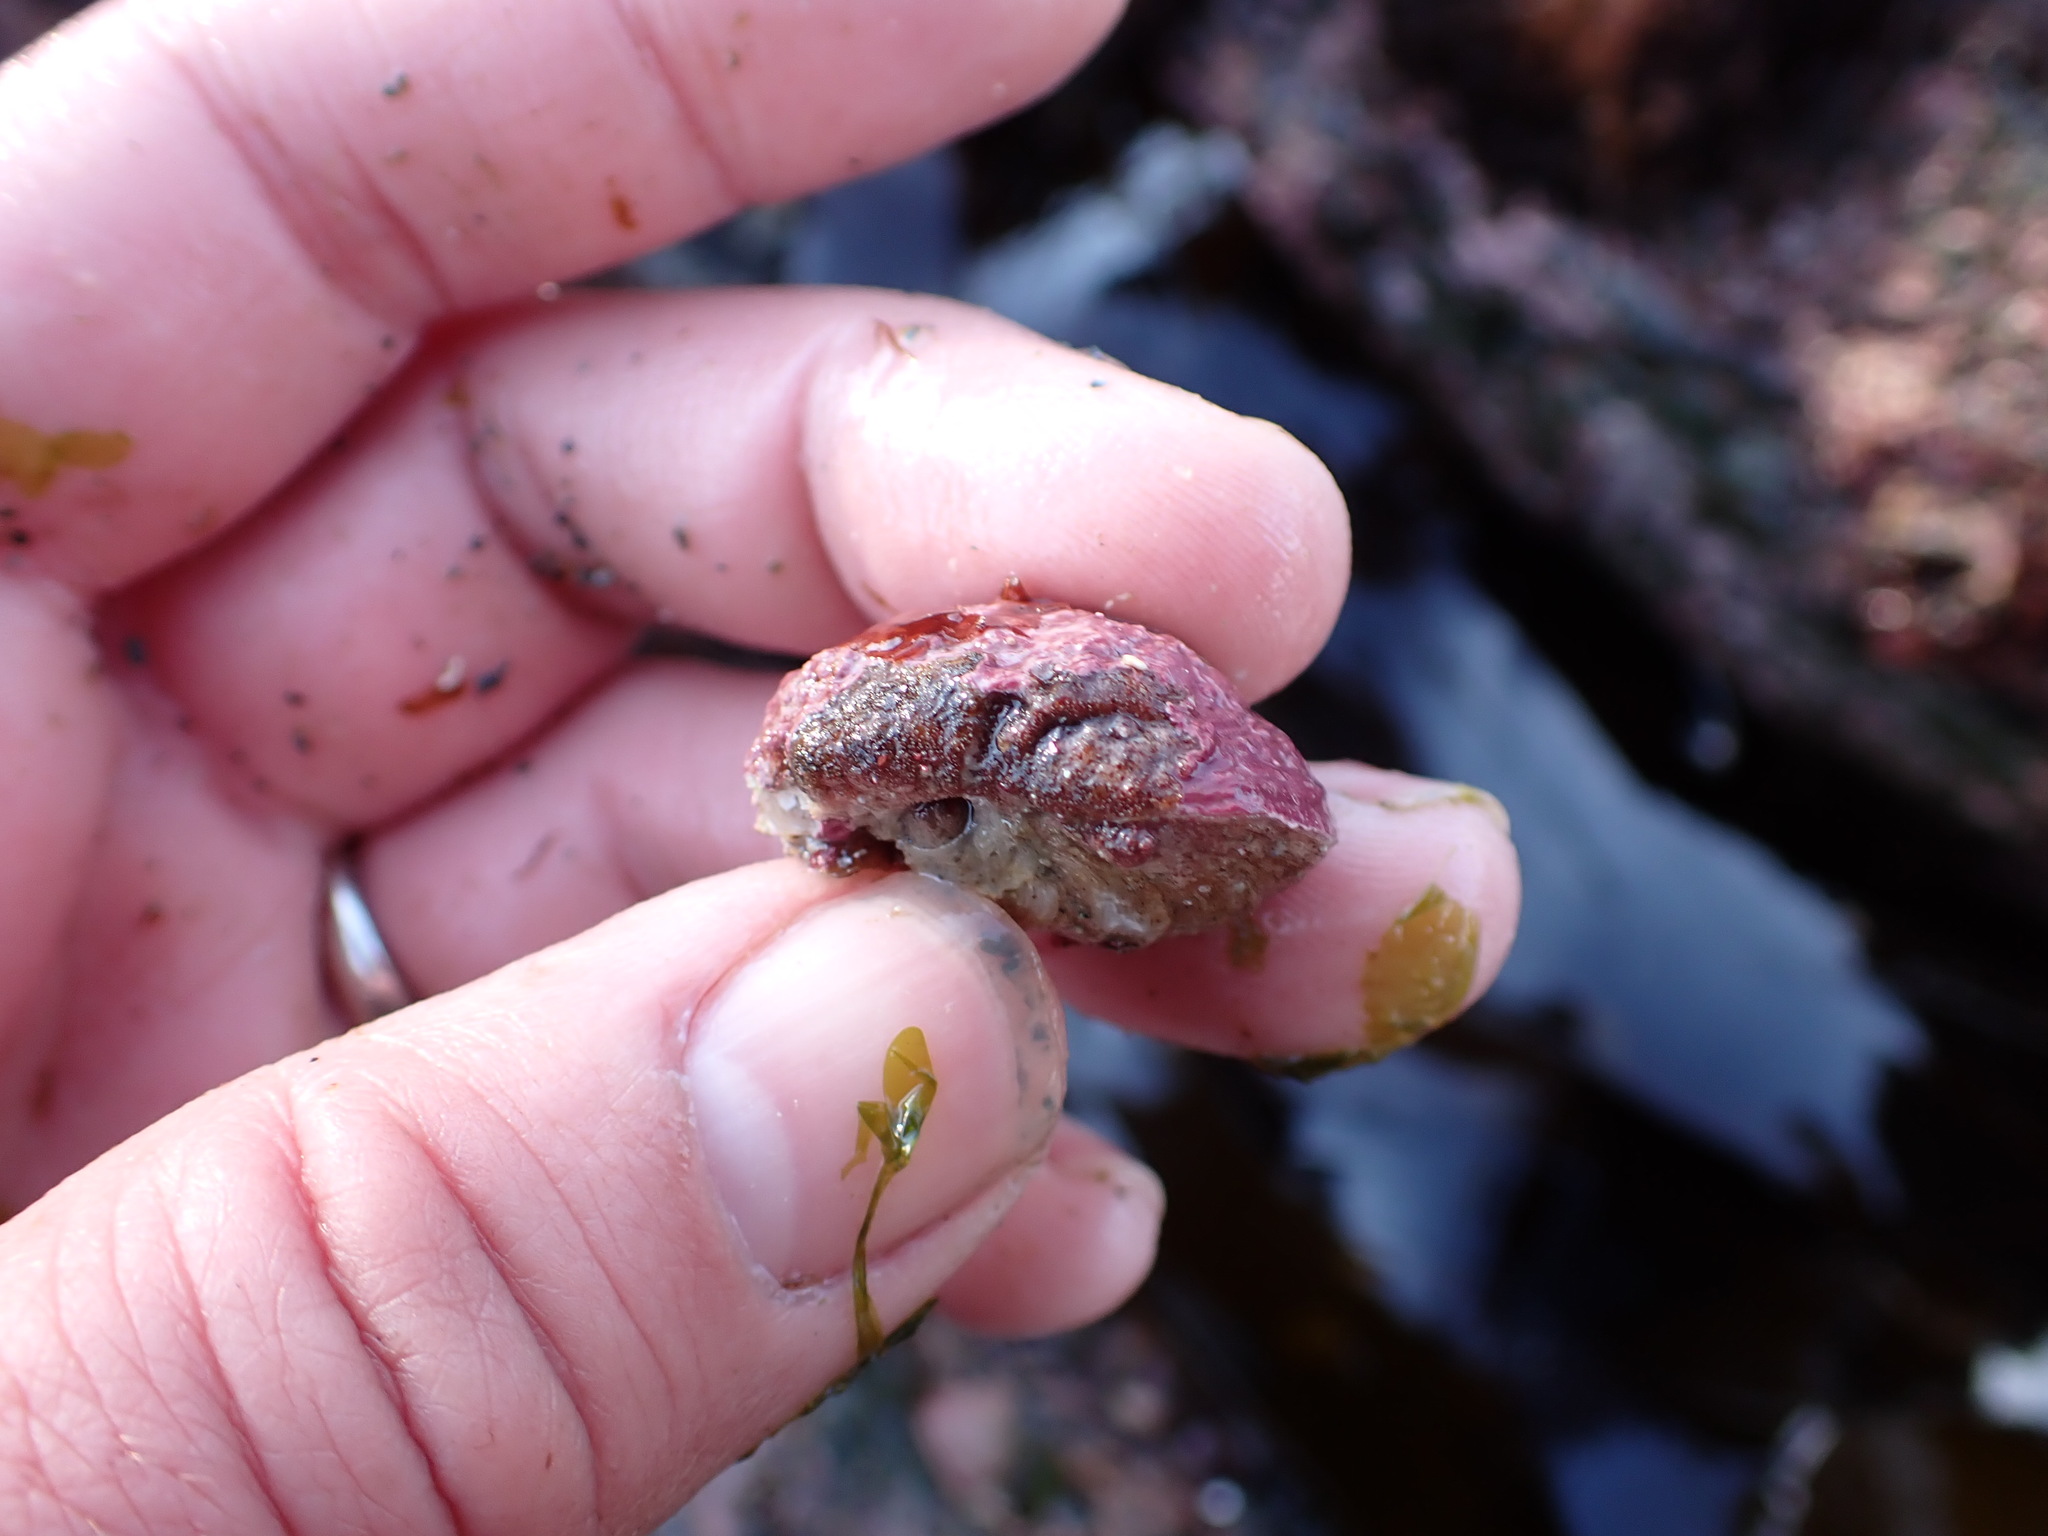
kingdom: Animalia
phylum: Brachiopoda
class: Rhynchonellata
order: Terebratulida
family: Terebrataliidae
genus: Terebratalia
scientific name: Terebratalia transversa
